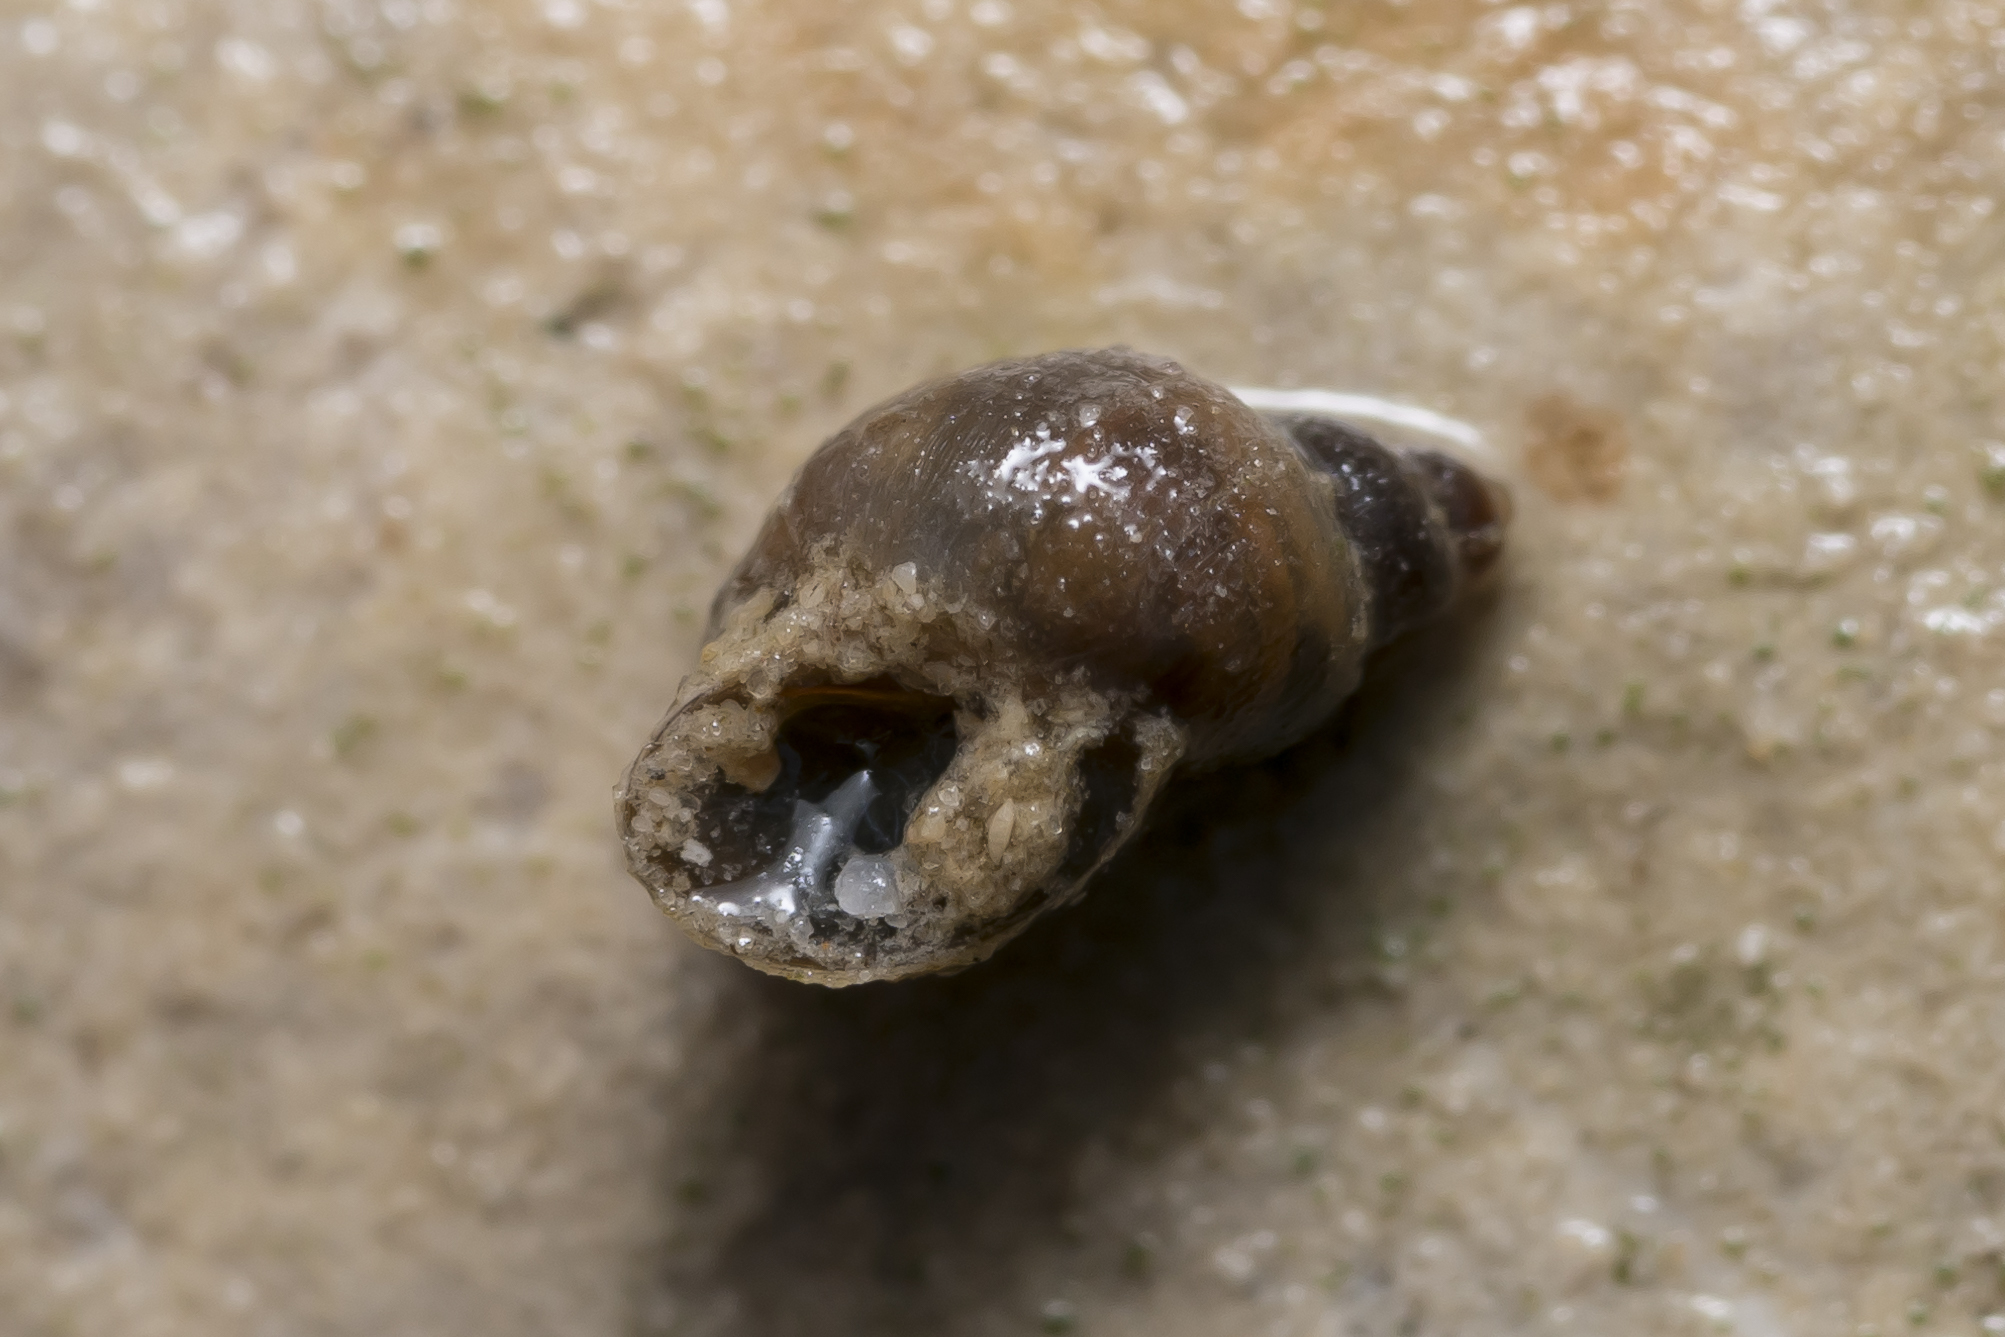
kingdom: Animalia
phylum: Mollusca
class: Gastropoda
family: Lymnaeidae
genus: Galba
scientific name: Galba truncatula
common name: Dwarf pond snail
